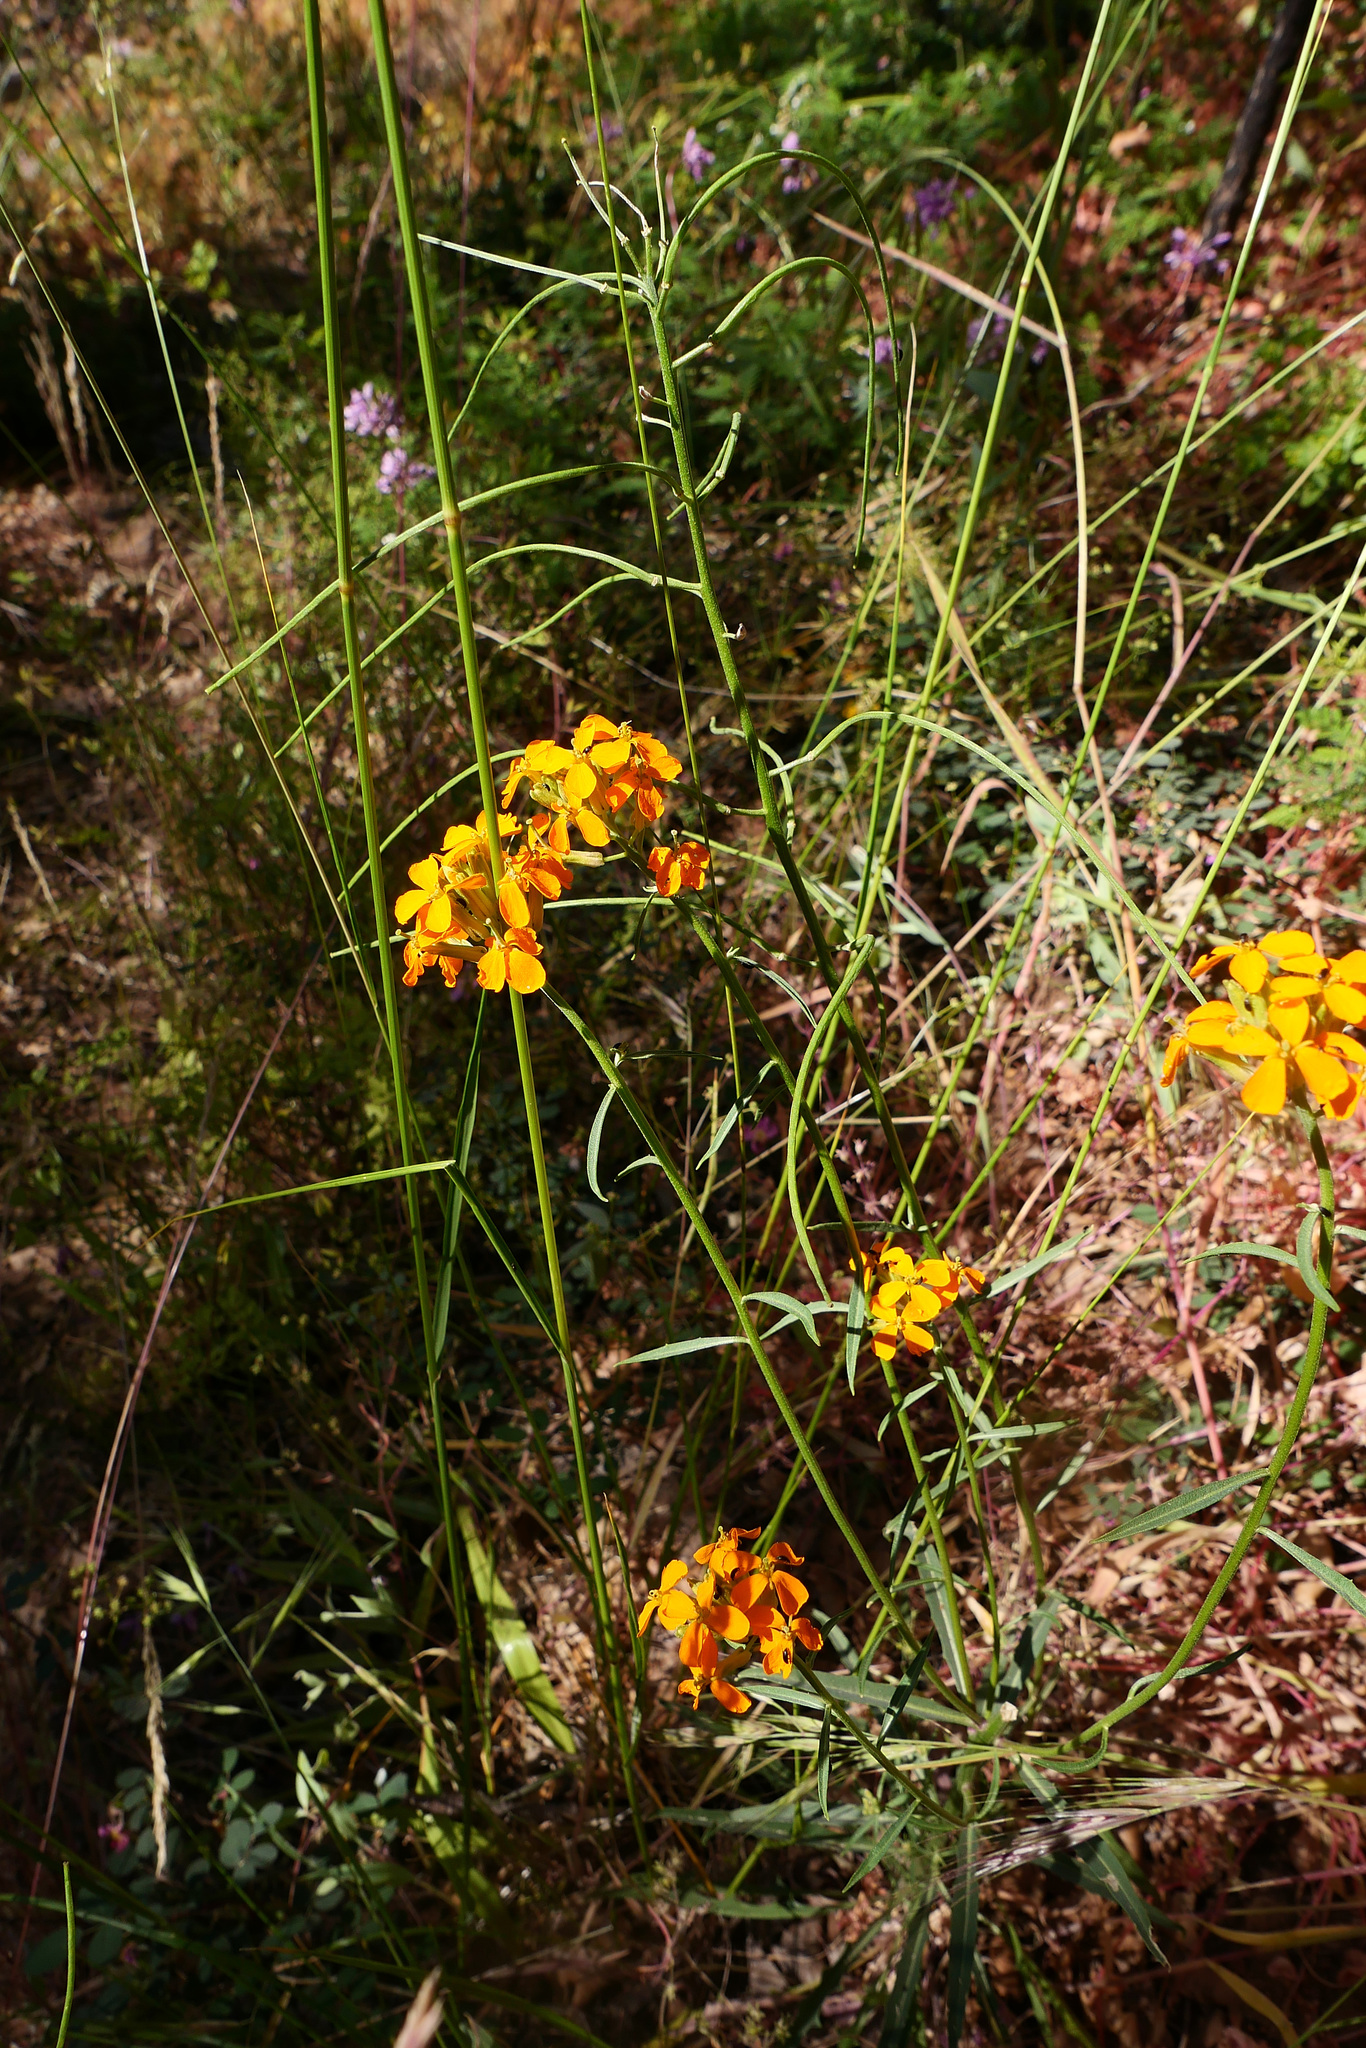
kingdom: Plantae
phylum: Tracheophyta
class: Magnoliopsida
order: Brassicales
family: Brassicaceae
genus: Erysimum
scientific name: Erysimum capitatum
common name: Western wallflower
